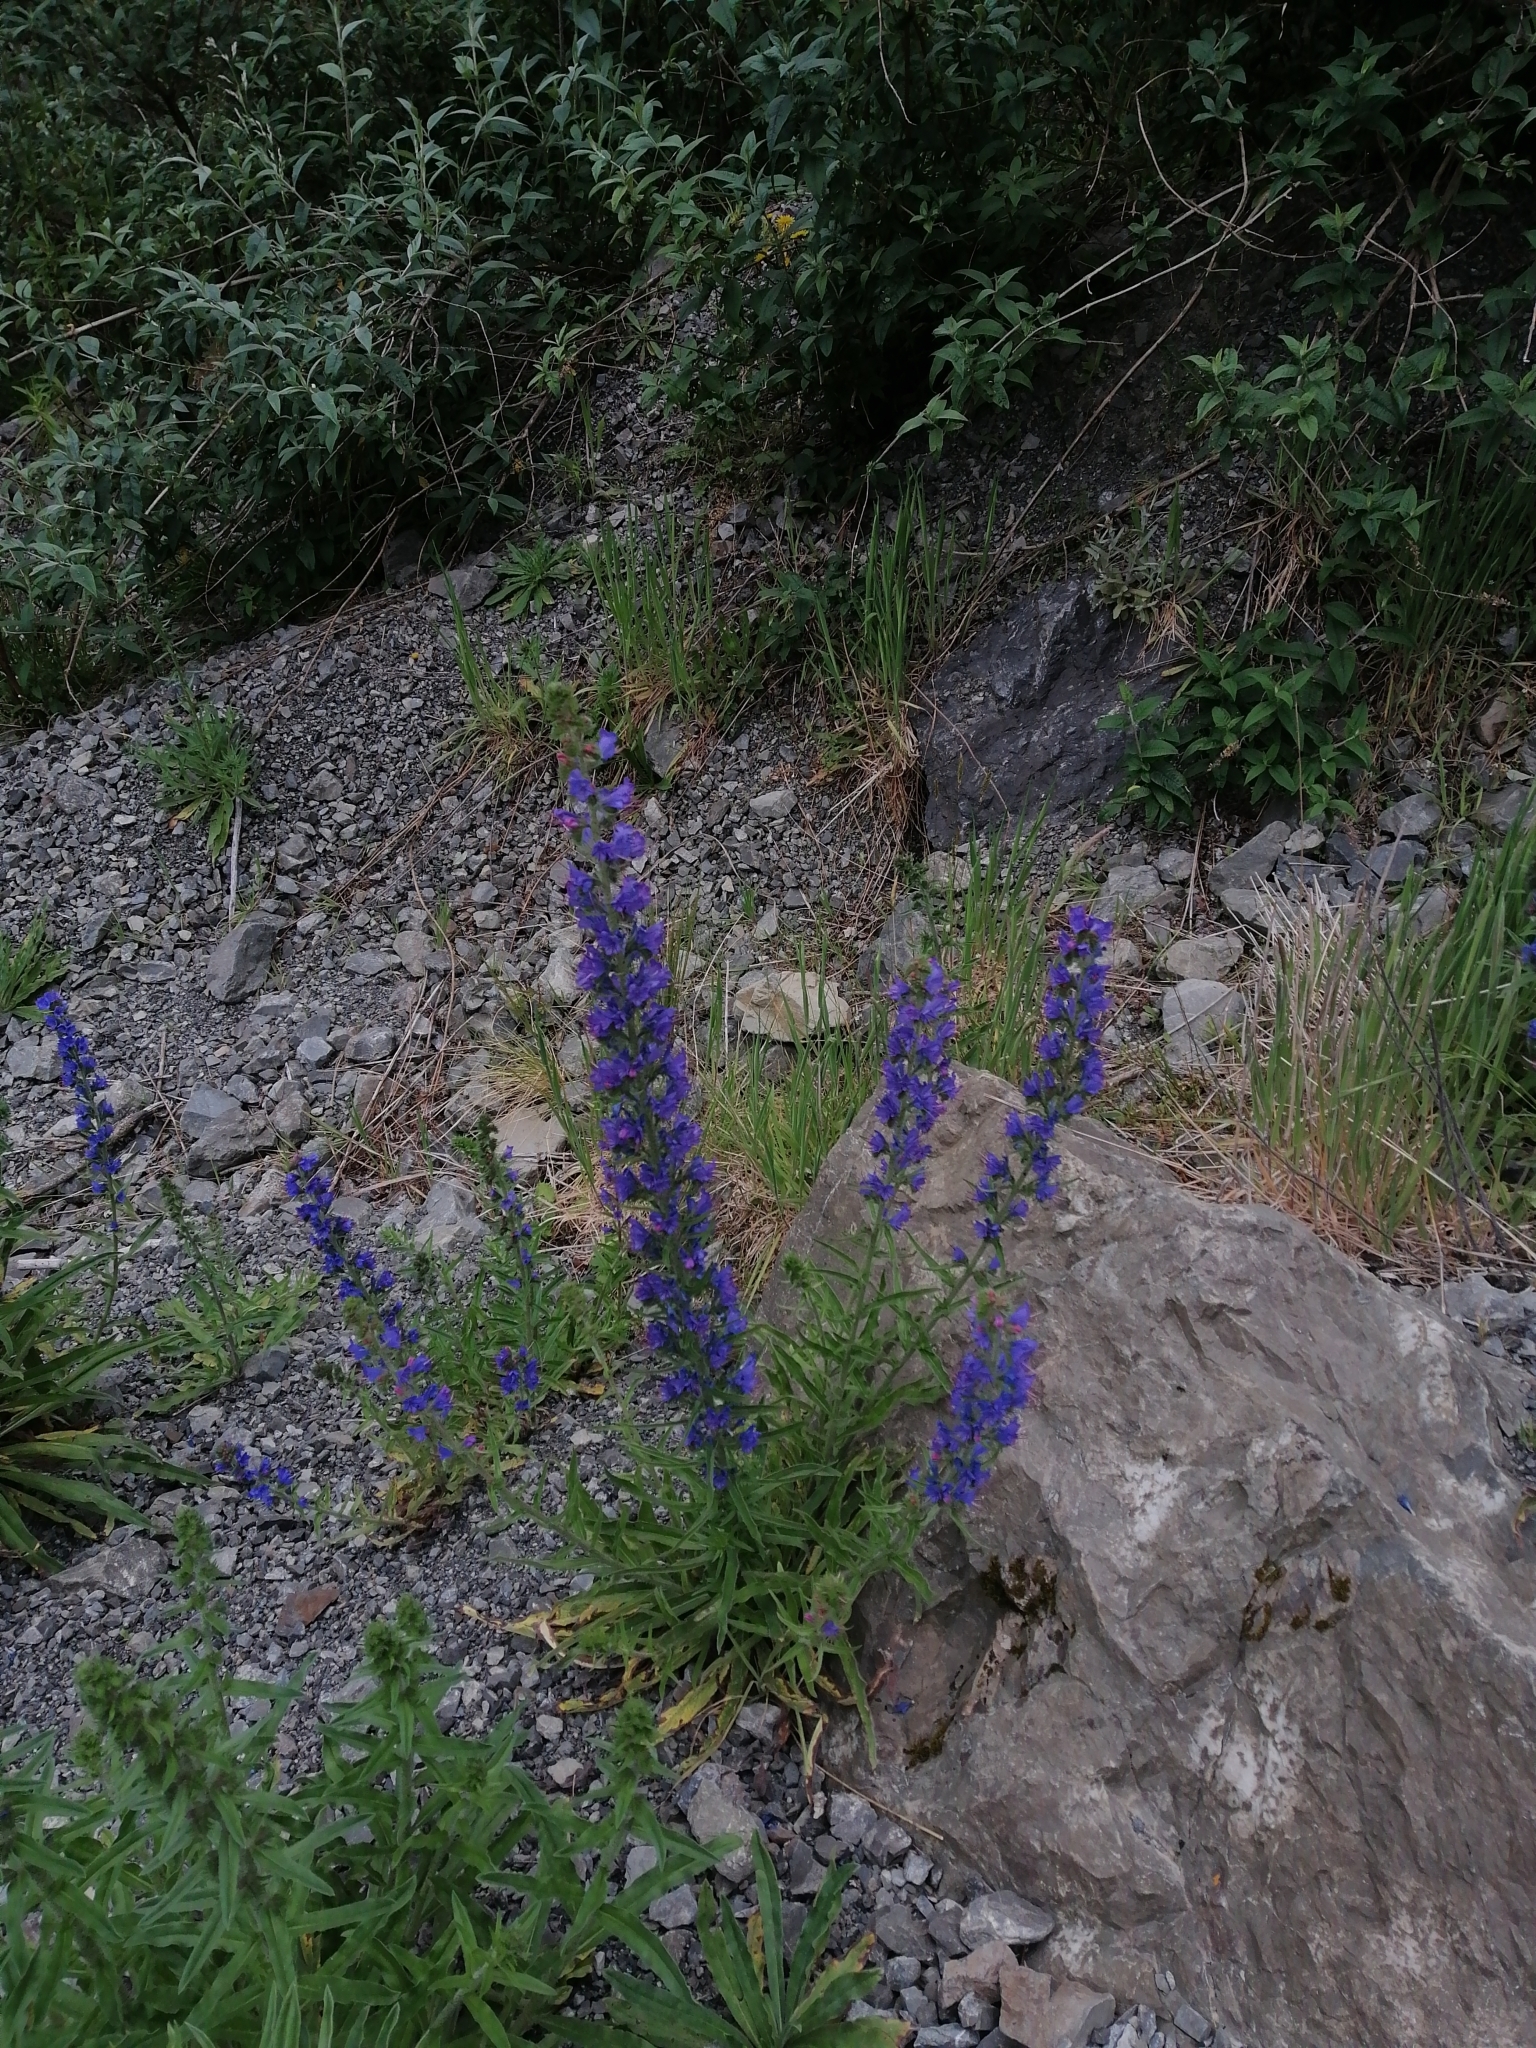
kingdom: Plantae
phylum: Tracheophyta
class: Magnoliopsida
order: Boraginales
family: Boraginaceae
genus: Echium
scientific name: Echium vulgare
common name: Common viper's bugloss
